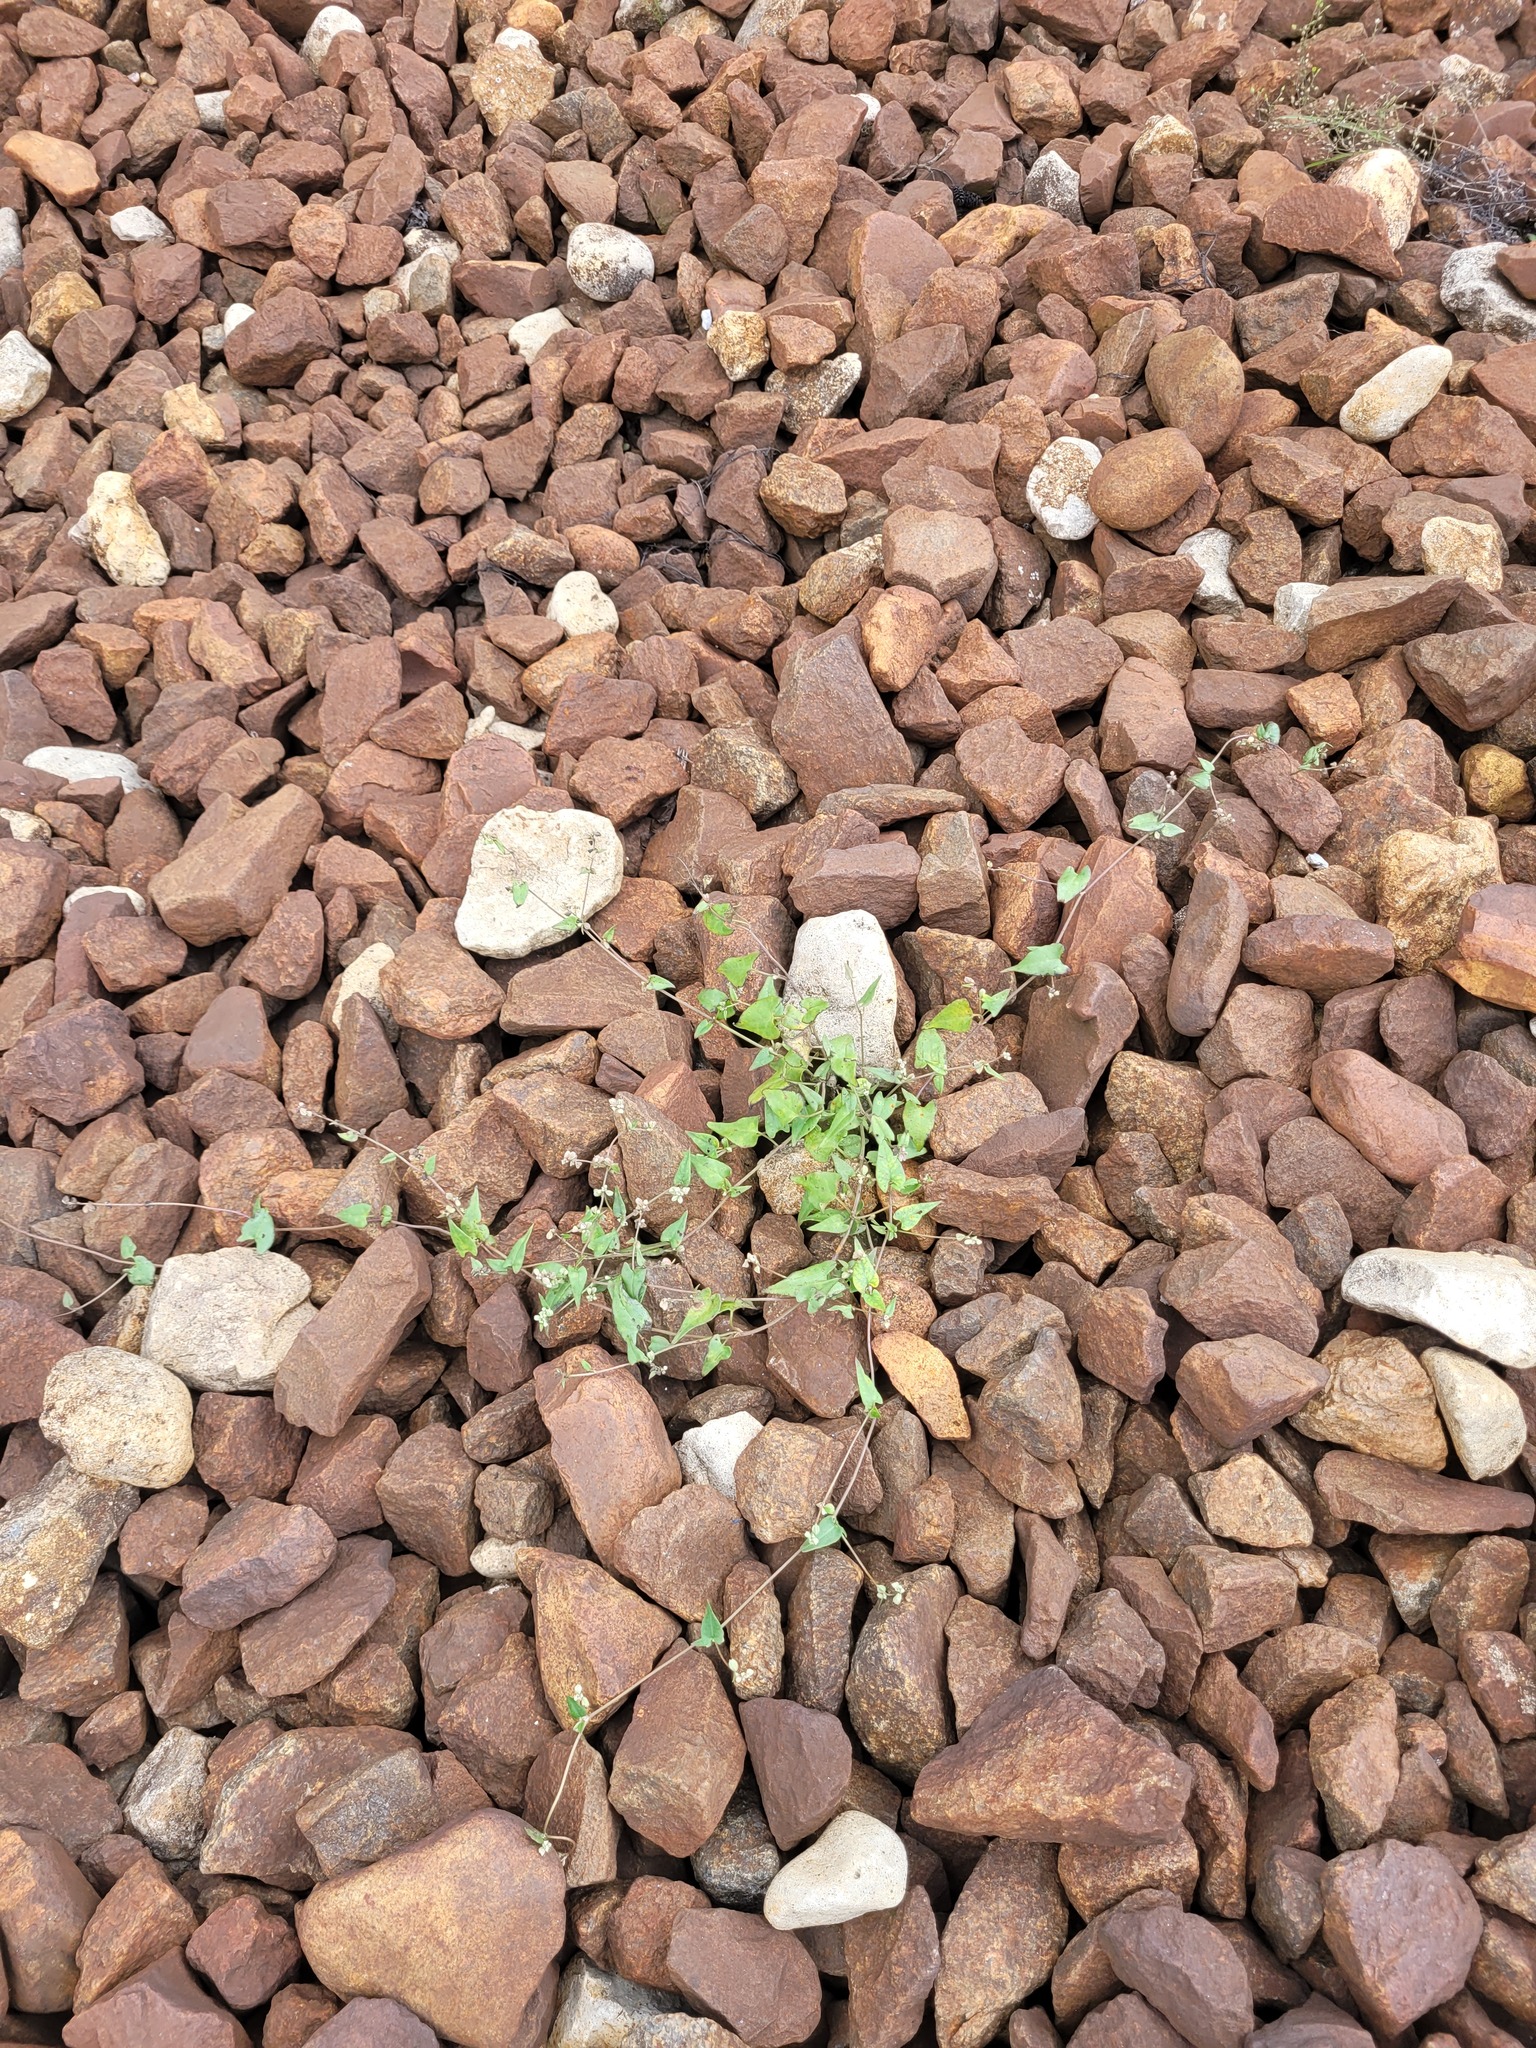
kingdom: Plantae
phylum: Tracheophyta
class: Magnoliopsida
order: Caryophyllales
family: Polygonaceae
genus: Fallopia
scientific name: Fallopia convolvulus
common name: Black bindweed
